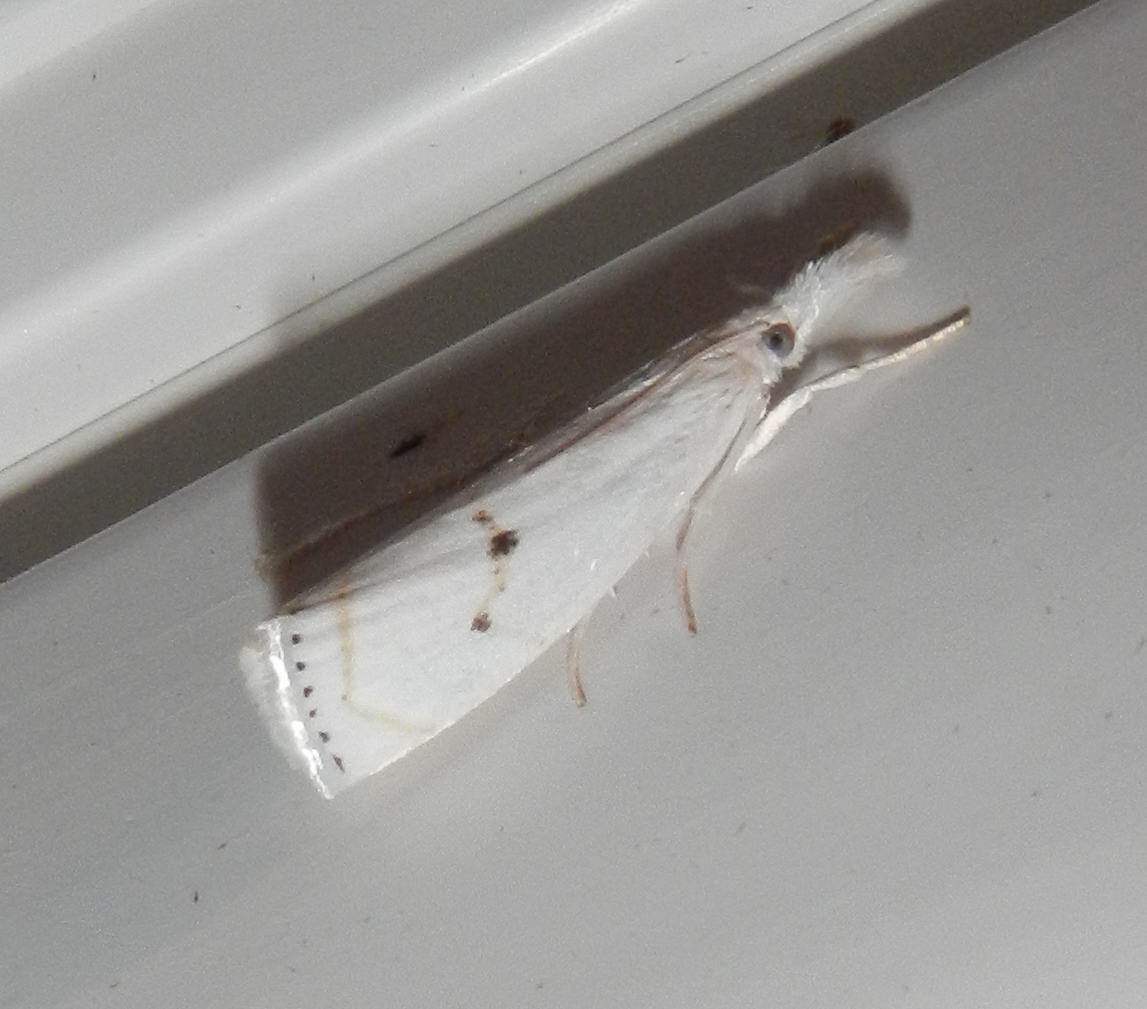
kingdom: Animalia
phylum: Arthropoda
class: Insecta
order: Lepidoptera
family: Crambidae
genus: Crambus
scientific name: Crambus Arequipa turbatella
